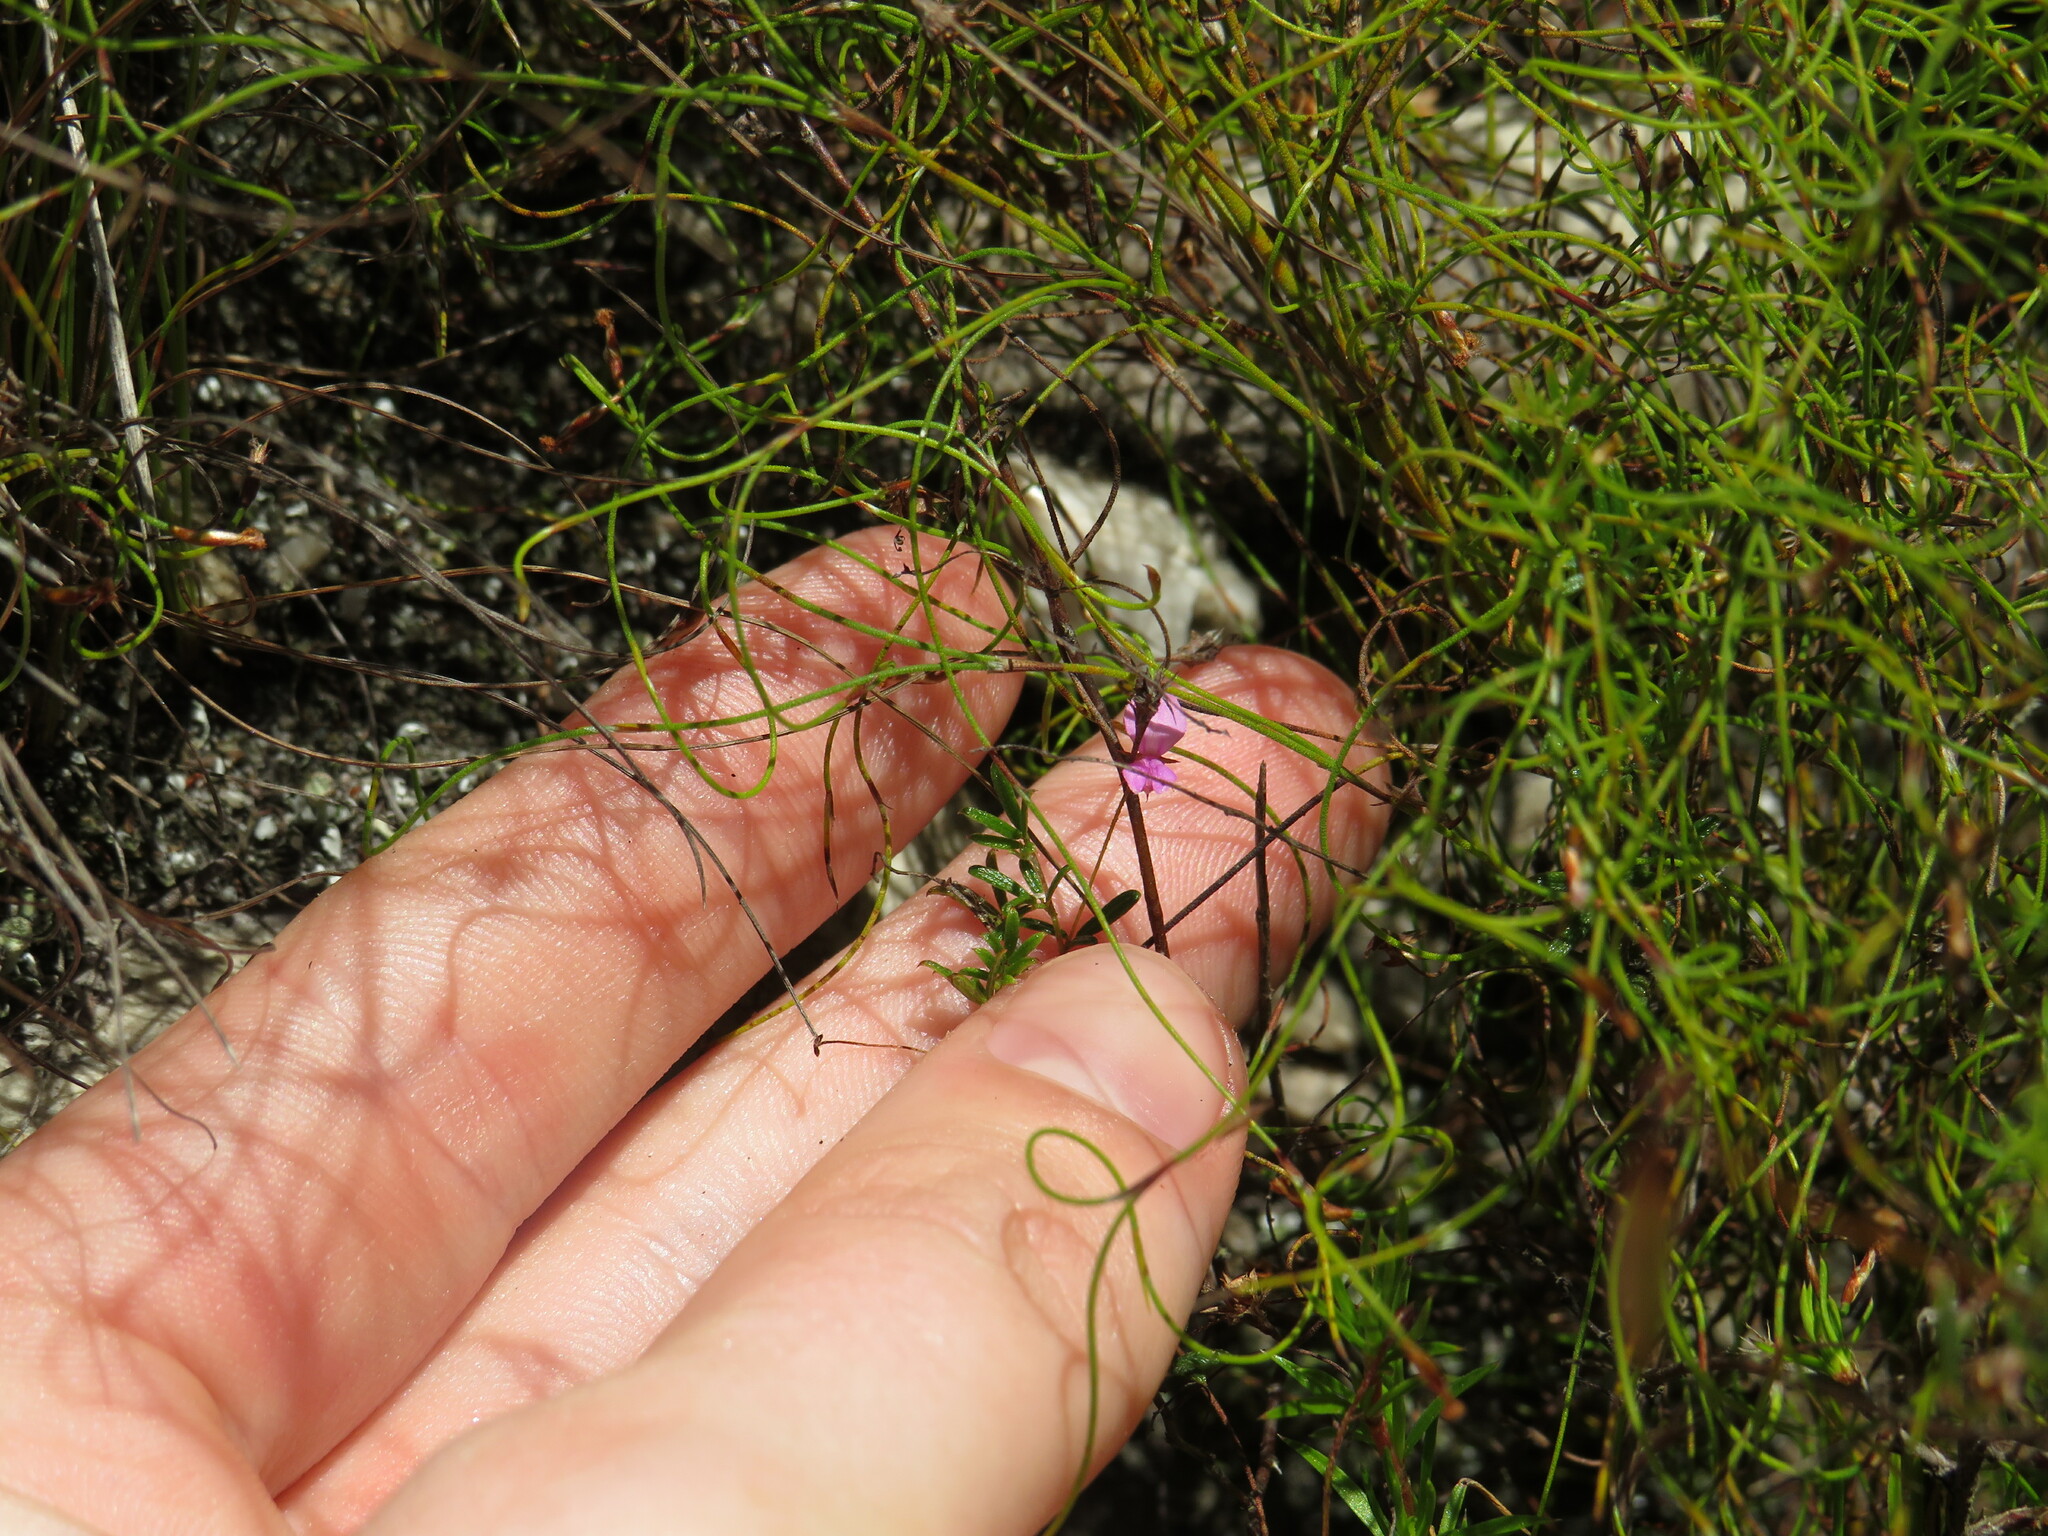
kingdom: Plantae
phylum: Tracheophyta
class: Magnoliopsida
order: Fabales
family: Fabaceae
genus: Indigofera
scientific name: Indigofera angustifolia
